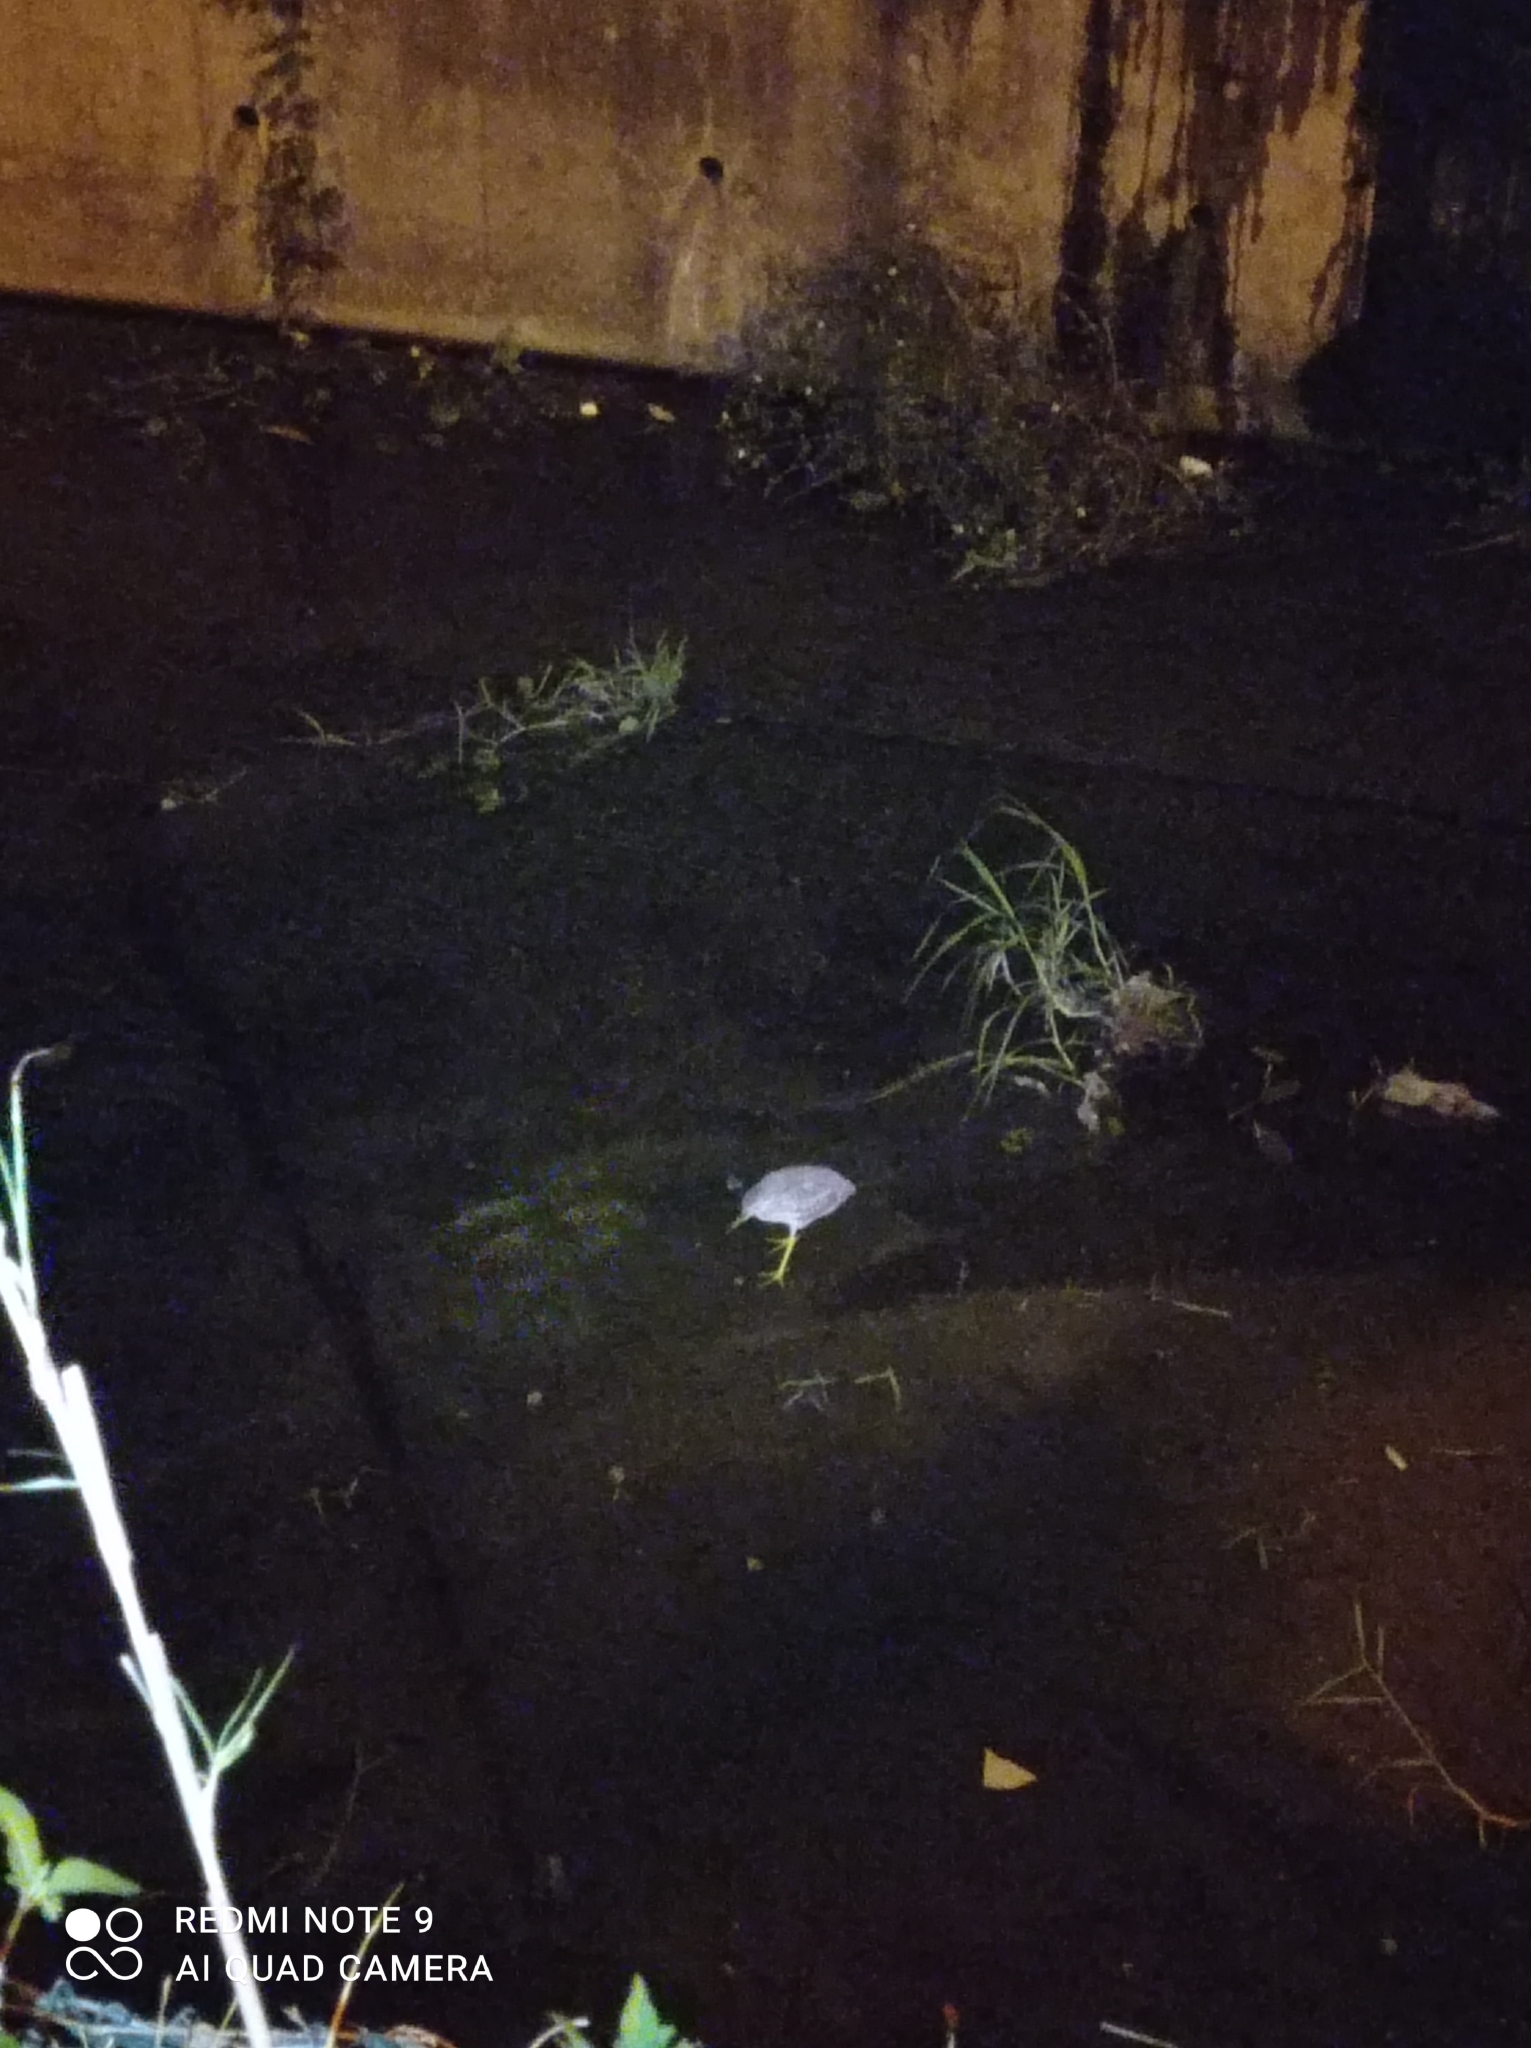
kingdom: Animalia
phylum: Chordata
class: Aves
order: Pelecaniformes
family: Ardeidae
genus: Nycticorax
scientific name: Nycticorax nycticorax
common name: Black-crowned night heron
